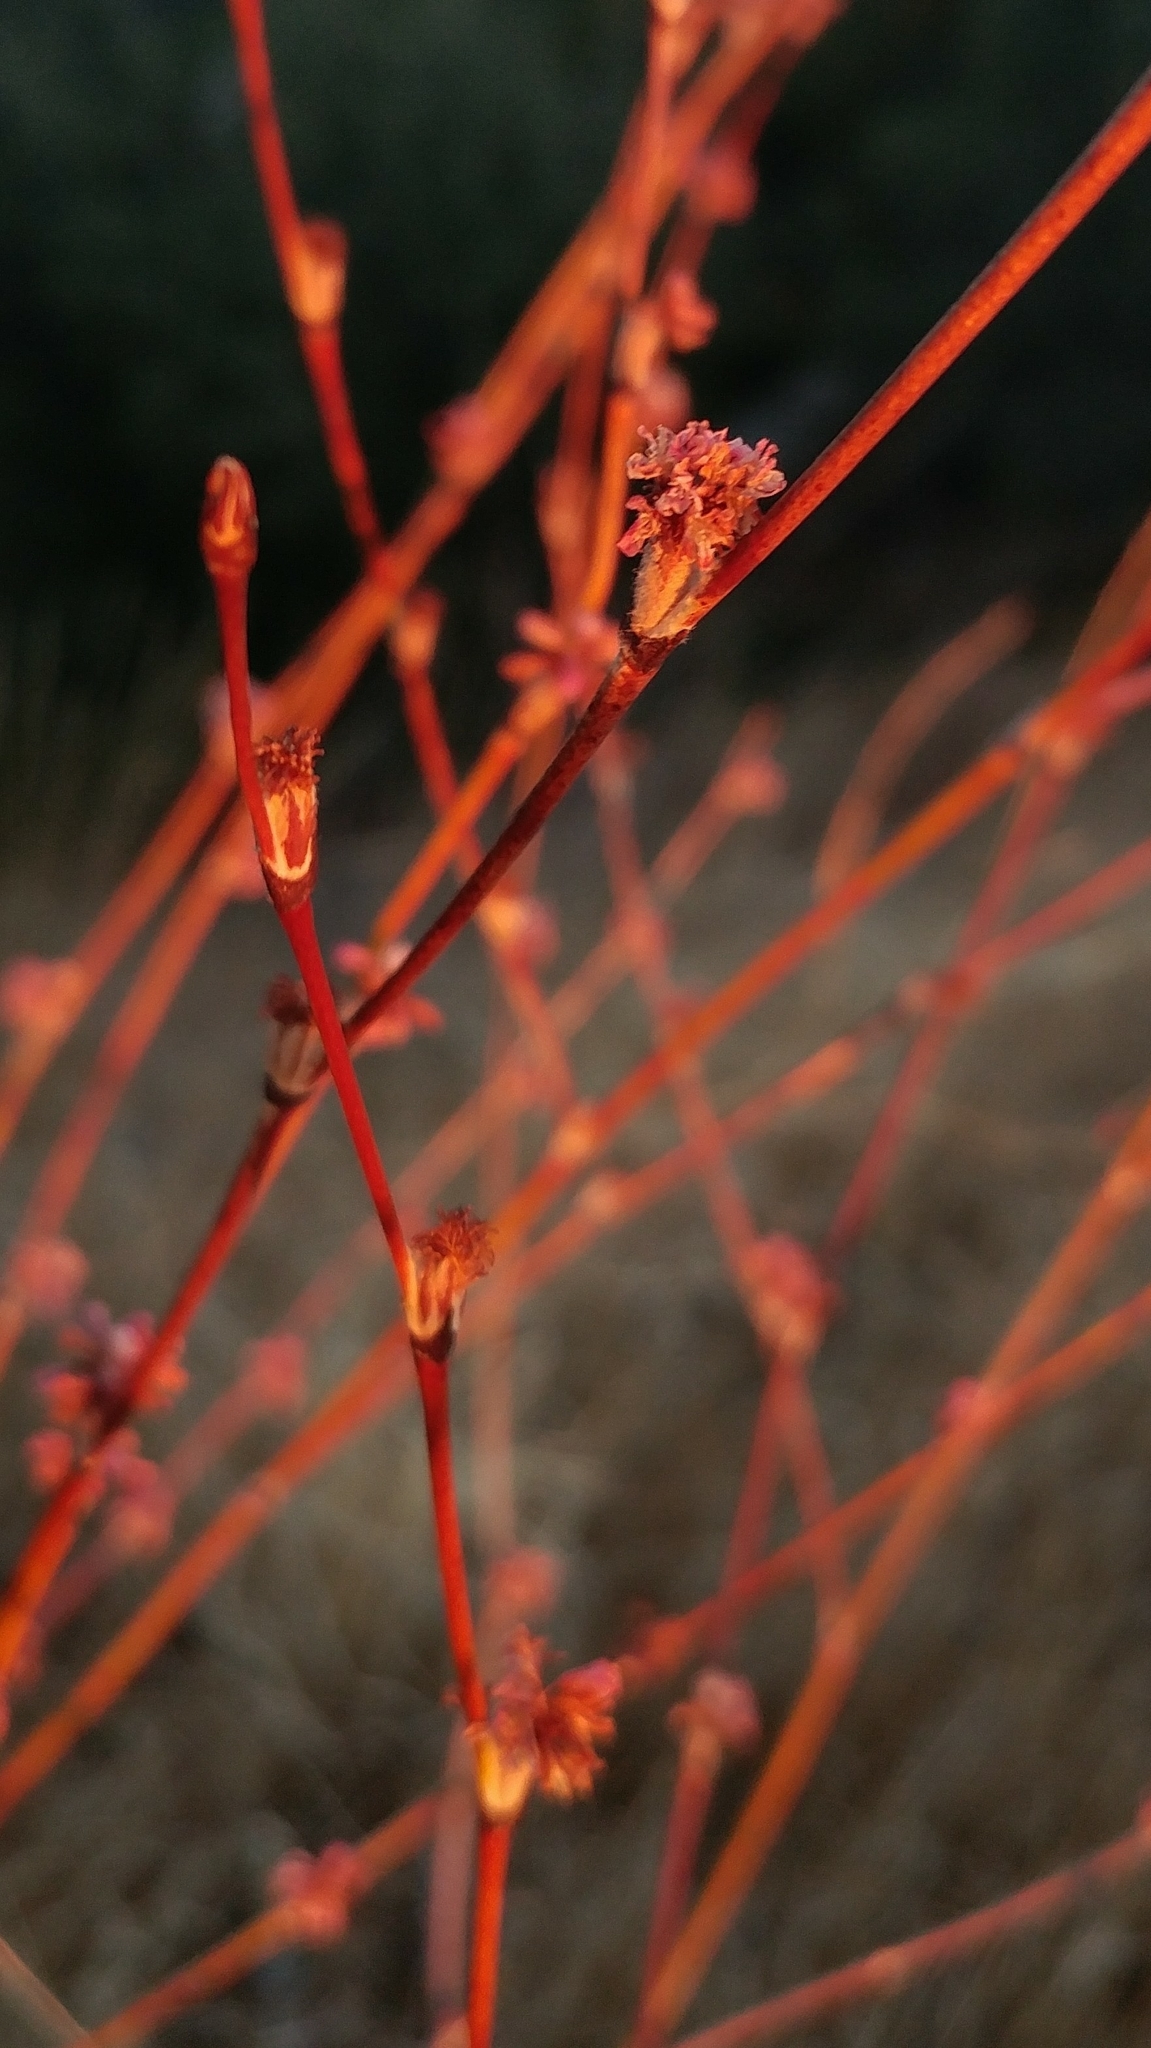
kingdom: Plantae
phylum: Tracheophyta
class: Magnoliopsida
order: Caryophyllales
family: Polygonaceae
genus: Eriogonum
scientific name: Eriogonum elongatum
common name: Long-stem wild buckwheat
